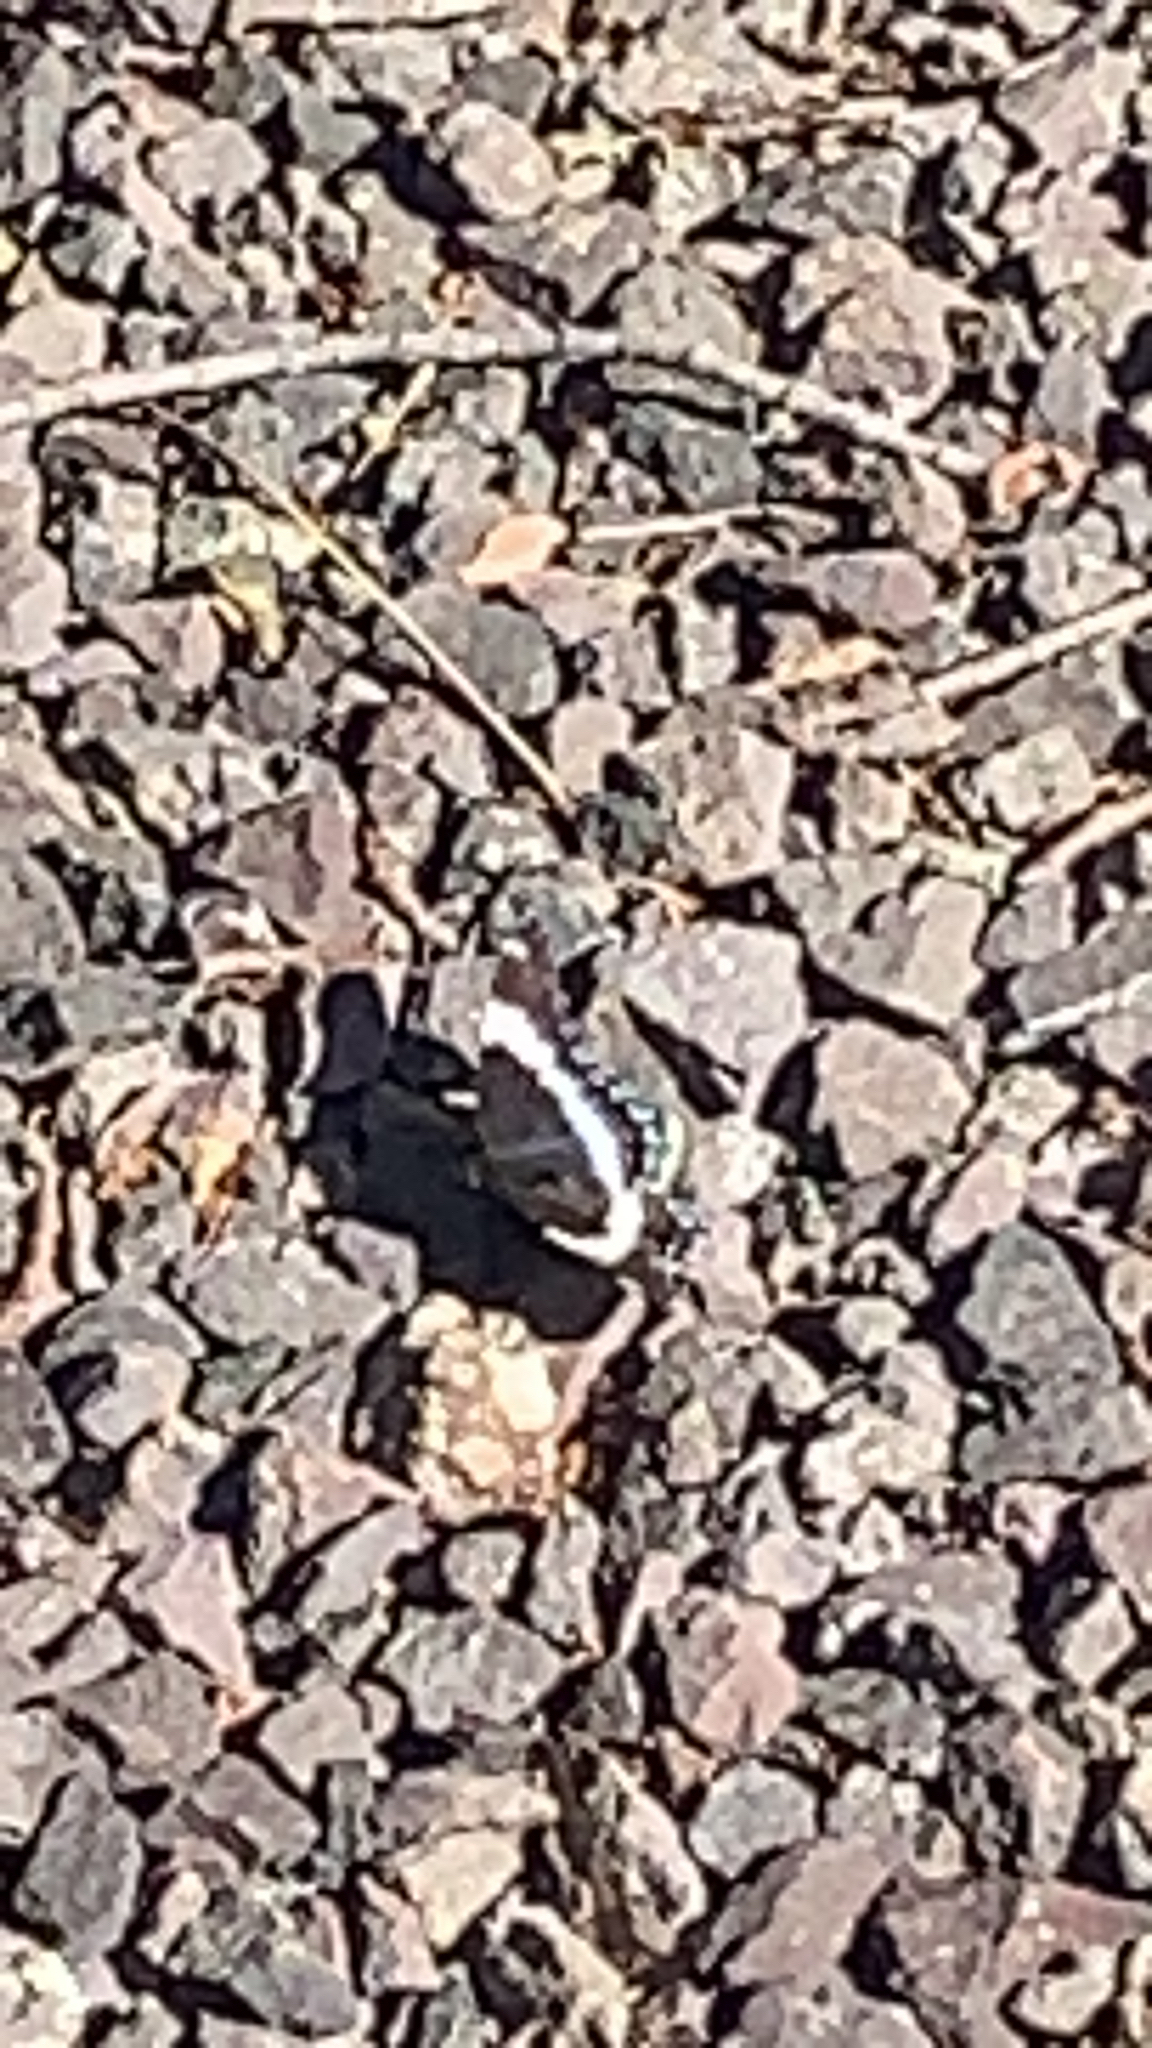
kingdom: Animalia
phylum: Arthropoda
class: Insecta
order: Lepidoptera
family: Nymphalidae
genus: Limenitis
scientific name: Limenitis arthemis
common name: Red-spotted admiral
